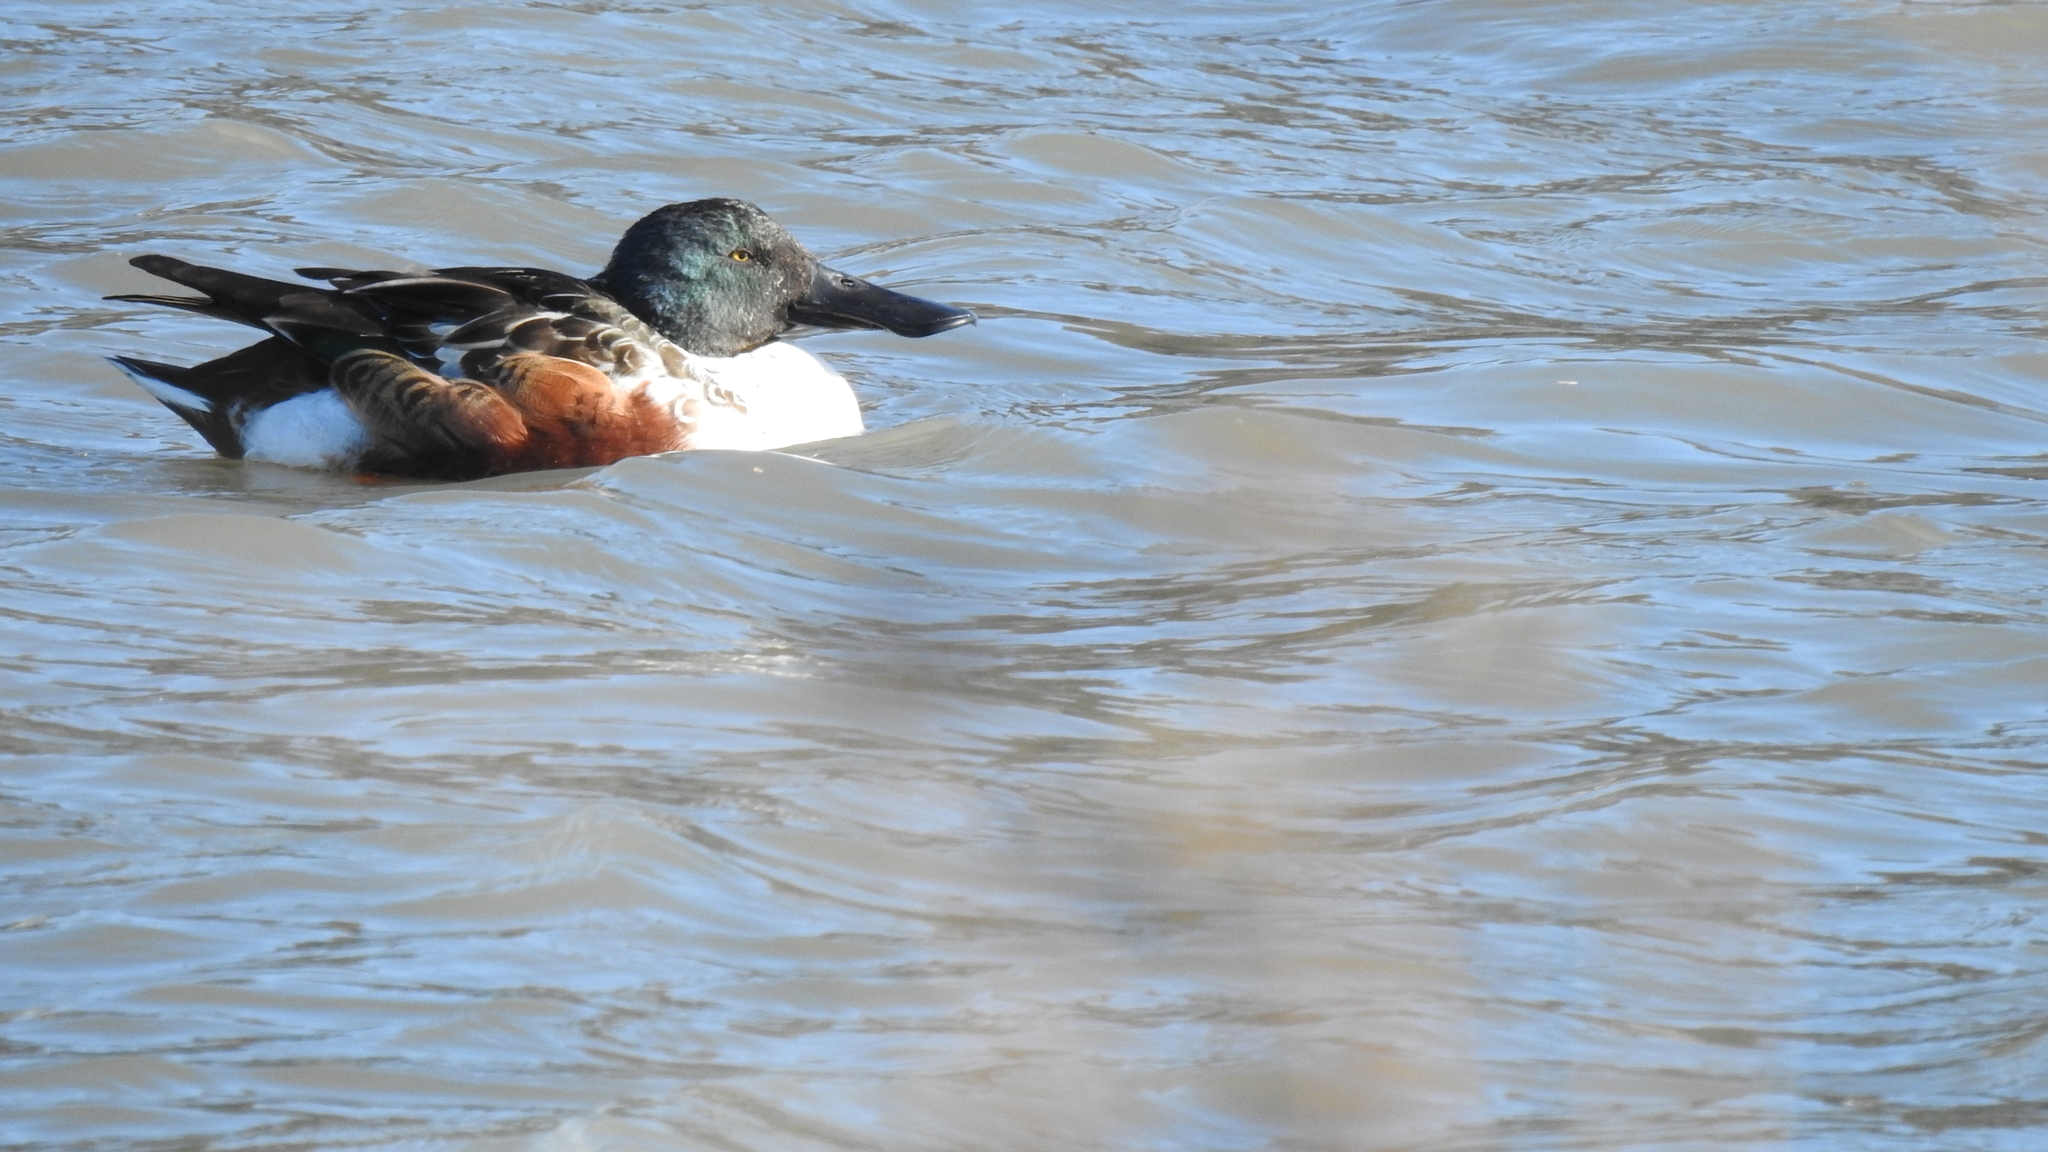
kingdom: Animalia
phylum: Chordata
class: Aves
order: Anseriformes
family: Anatidae
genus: Spatula
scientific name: Spatula clypeata
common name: Northern shoveler
